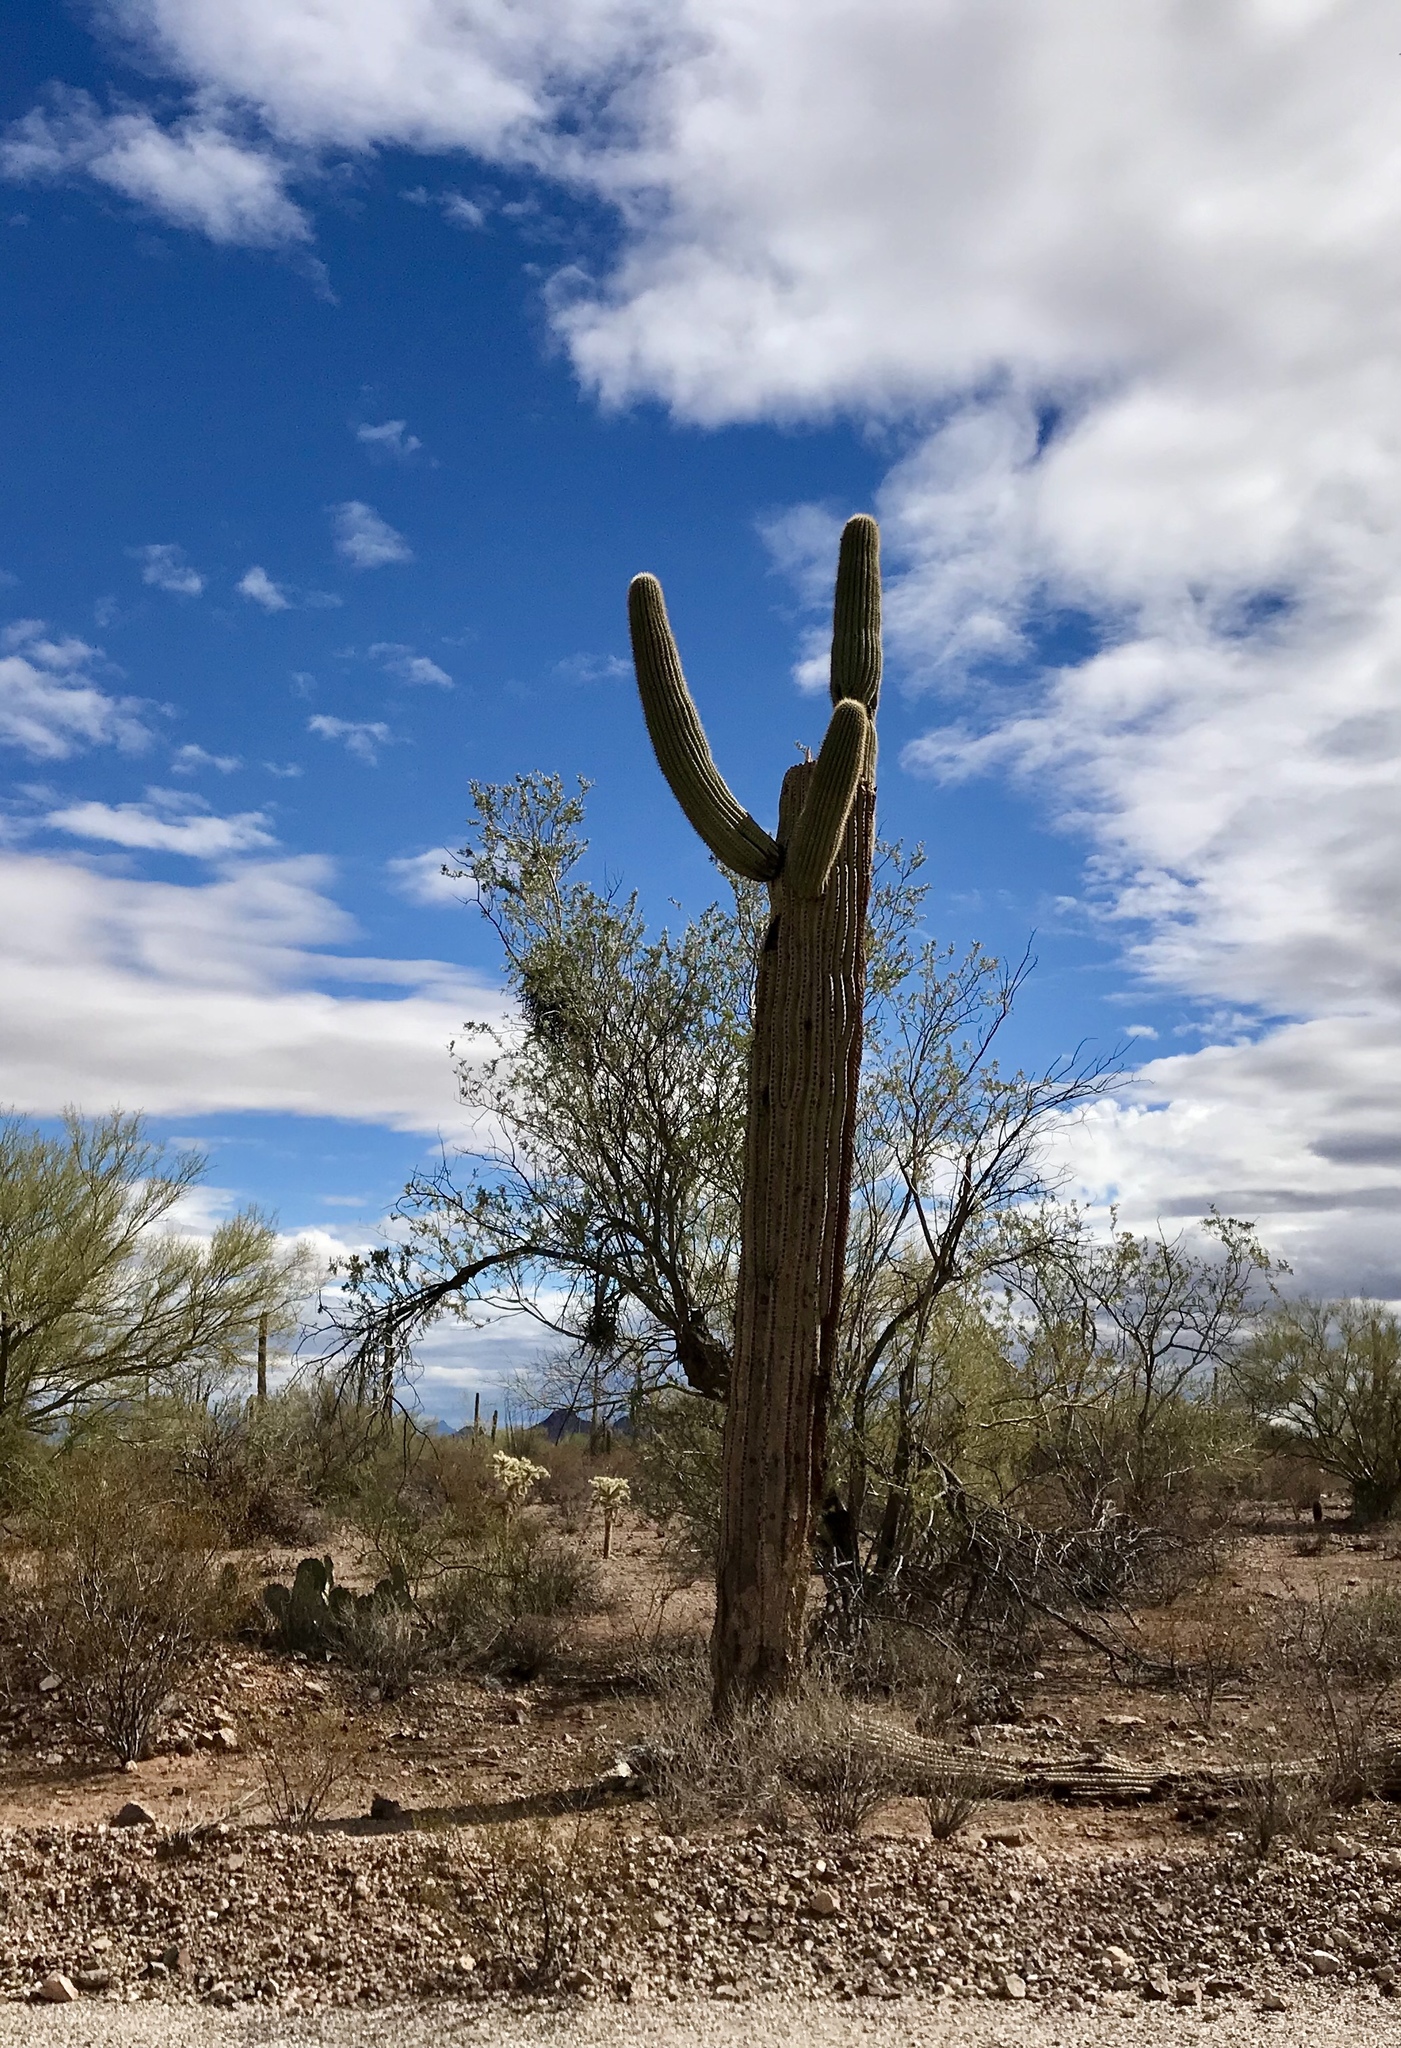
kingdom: Plantae
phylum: Tracheophyta
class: Magnoliopsida
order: Caryophyllales
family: Cactaceae
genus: Carnegiea
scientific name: Carnegiea gigantea
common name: Saguaro
